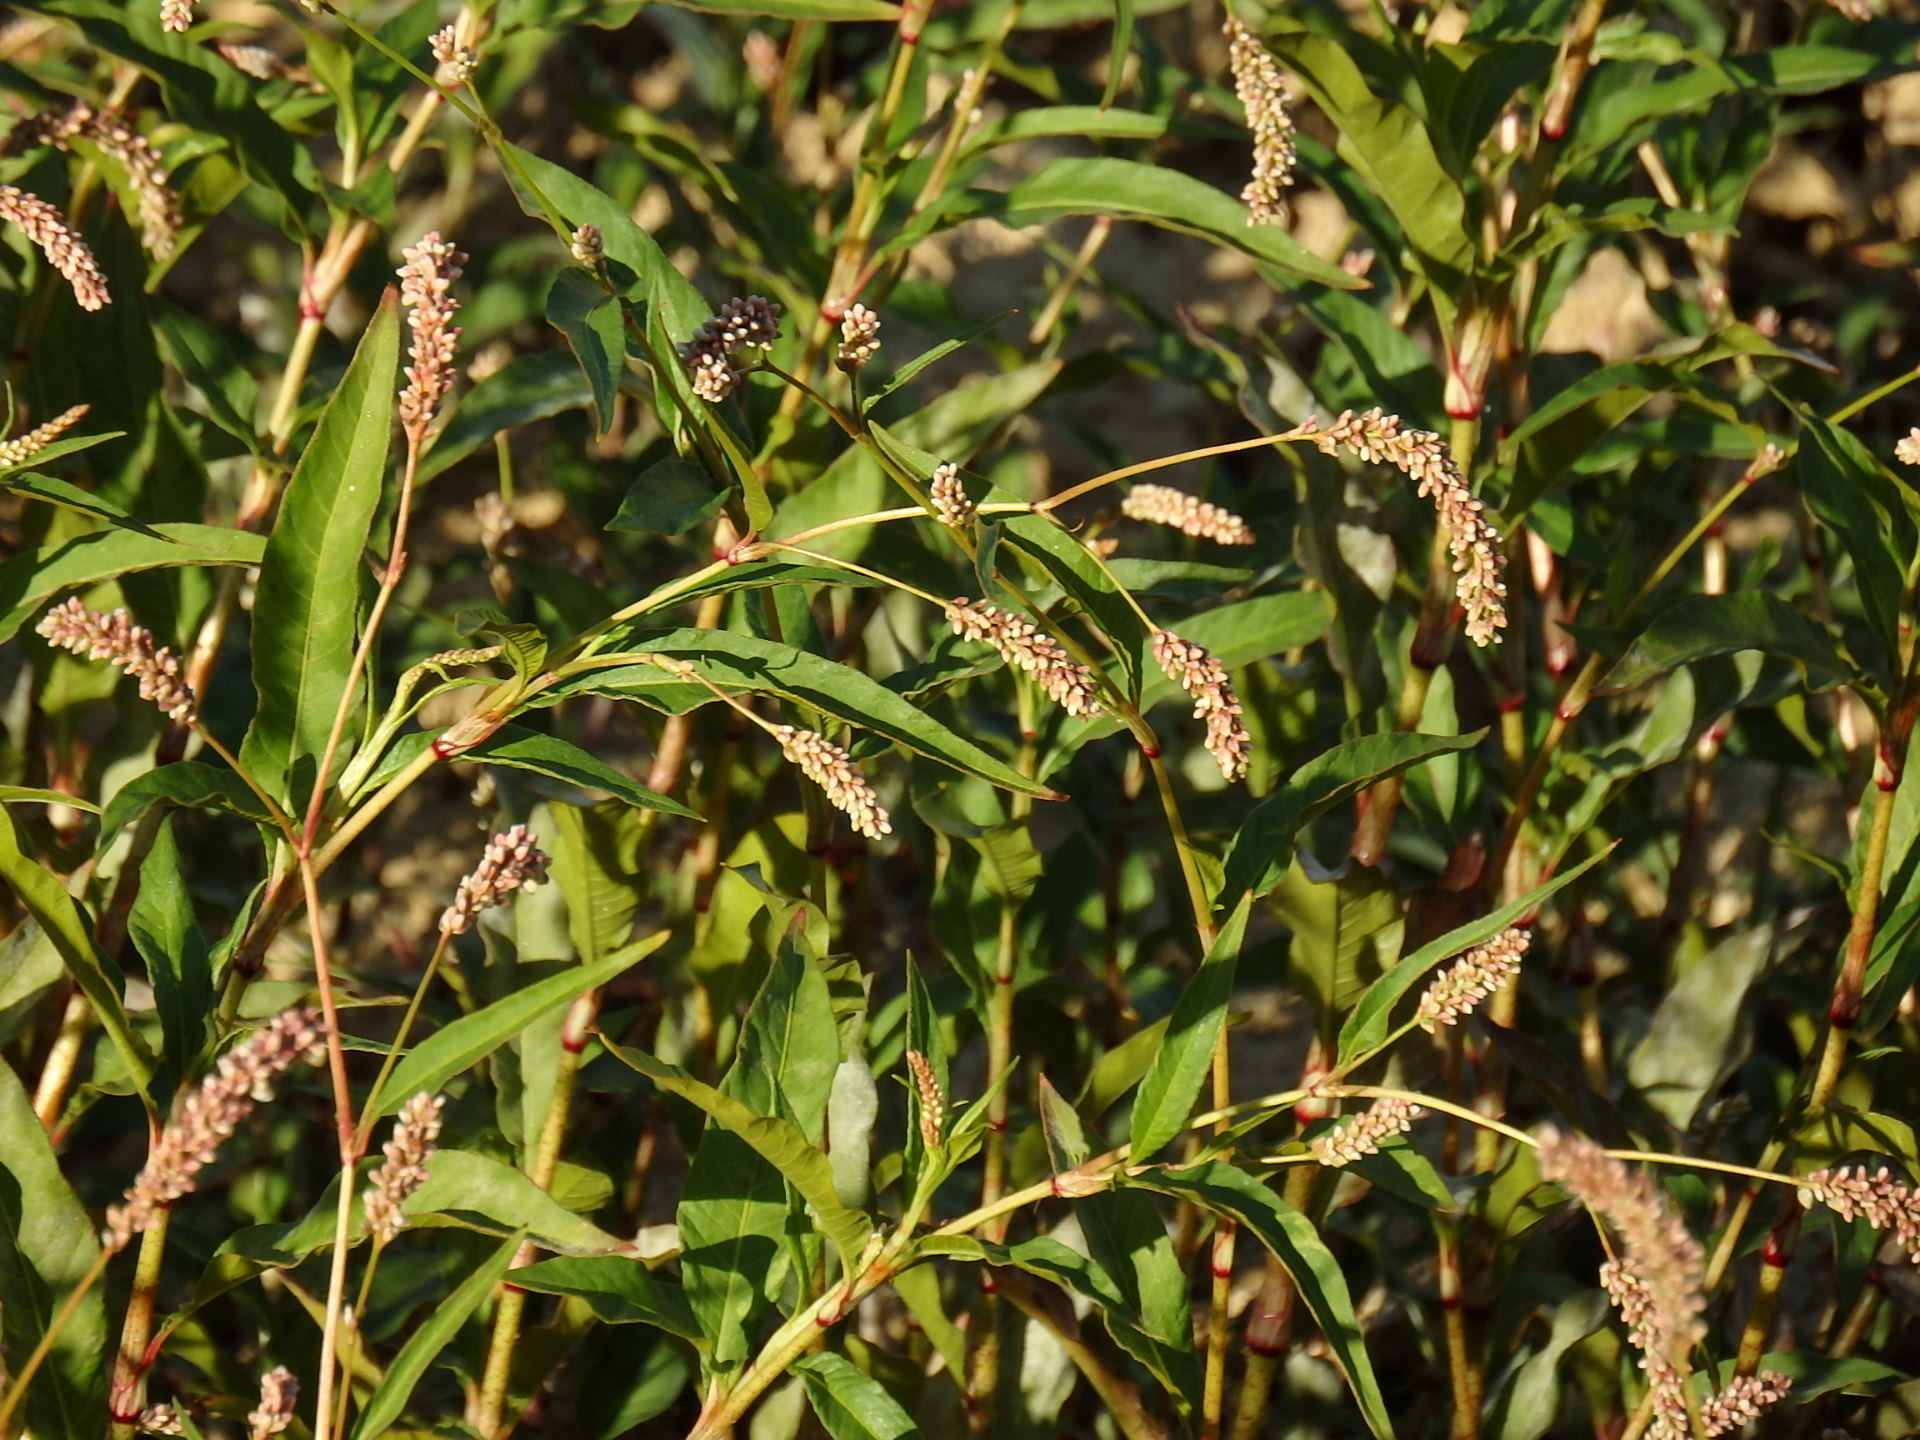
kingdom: Plantae
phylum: Tracheophyta
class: Magnoliopsida
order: Caryophyllales
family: Polygonaceae
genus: Persicaria
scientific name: Persicaria lapathifolia
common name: Curlytop knotweed
